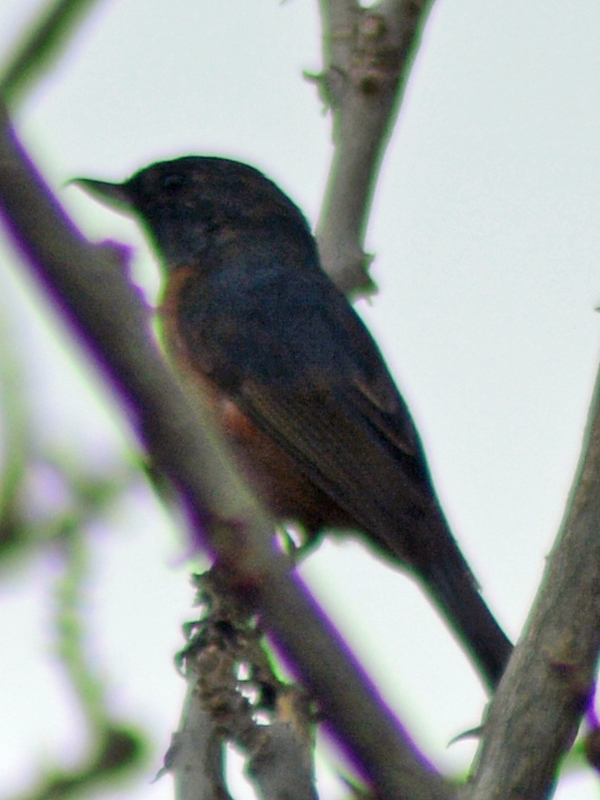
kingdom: Animalia
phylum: Chordata
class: Aves
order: Passeriformes
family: Thraupidae
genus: Diglossa
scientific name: Diglossa baritula
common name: Cinnamon-bellied flowerpiercer
